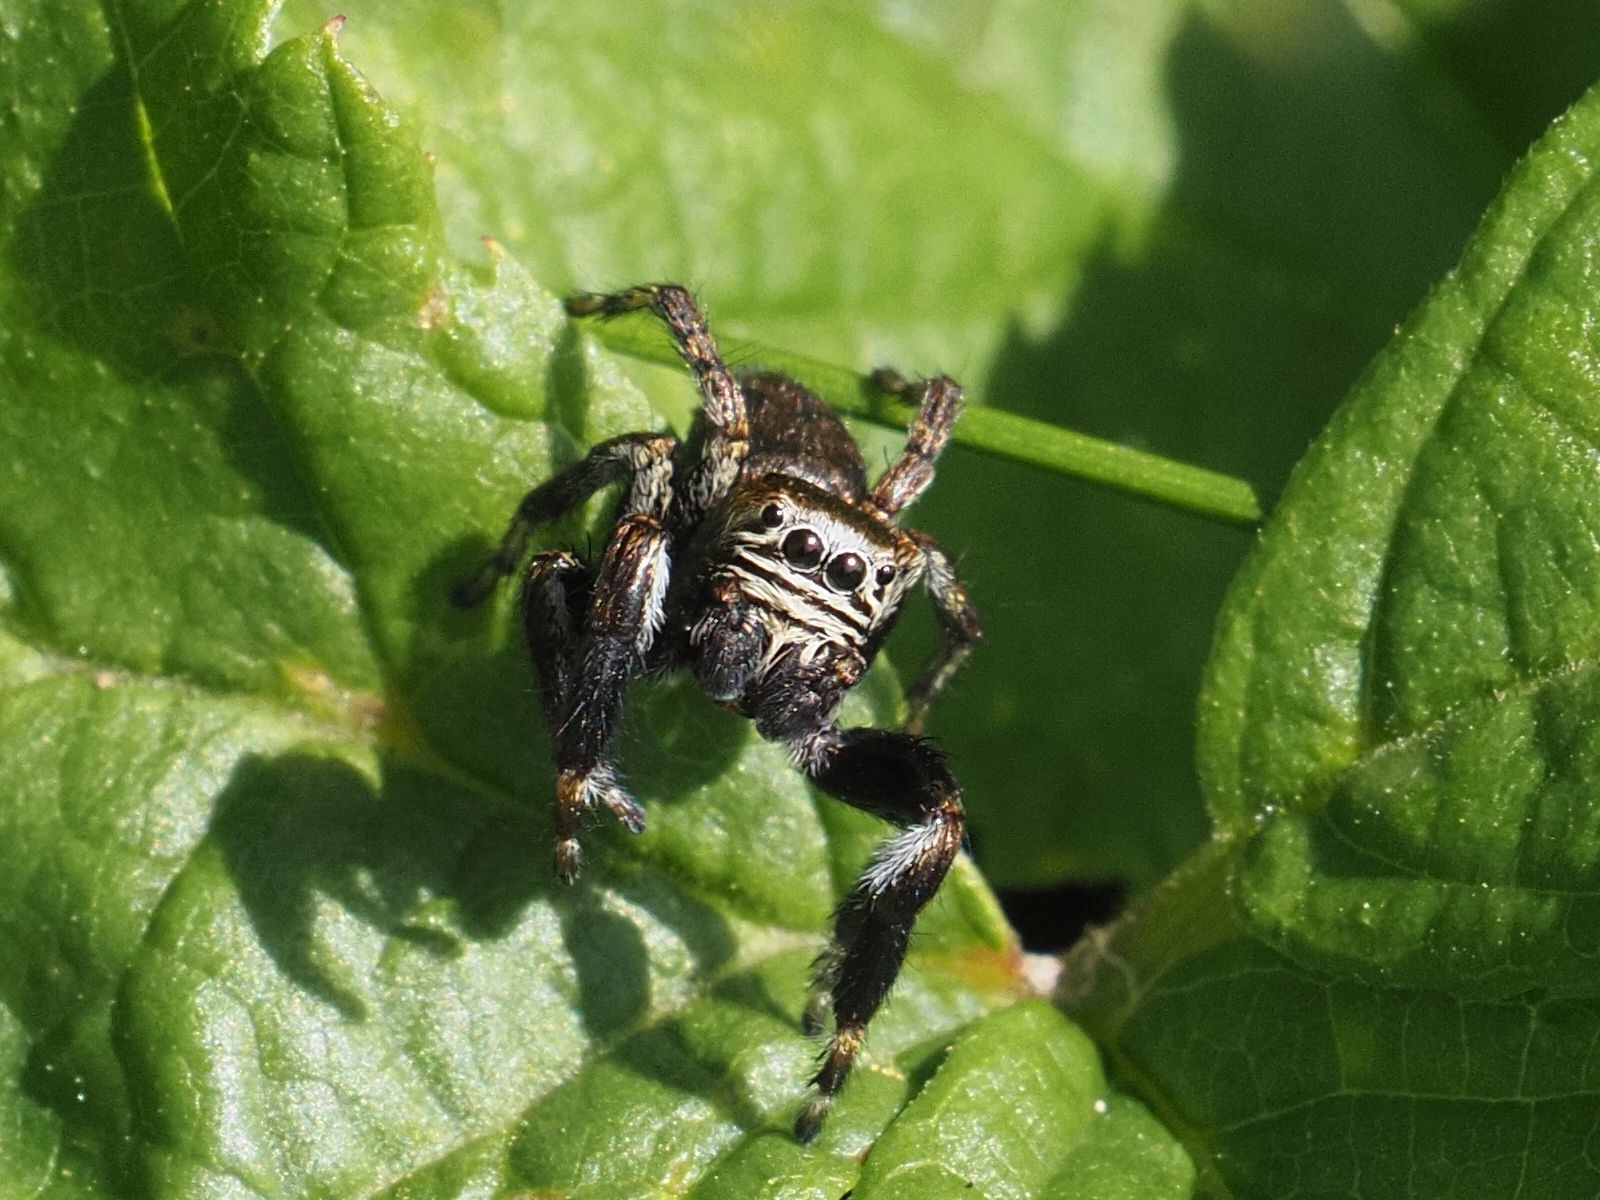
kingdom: Animalia
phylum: Arthropoda
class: Arachnida
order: Araneae
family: Salticidae
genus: Evarcha
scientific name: Evarcha arcuata
